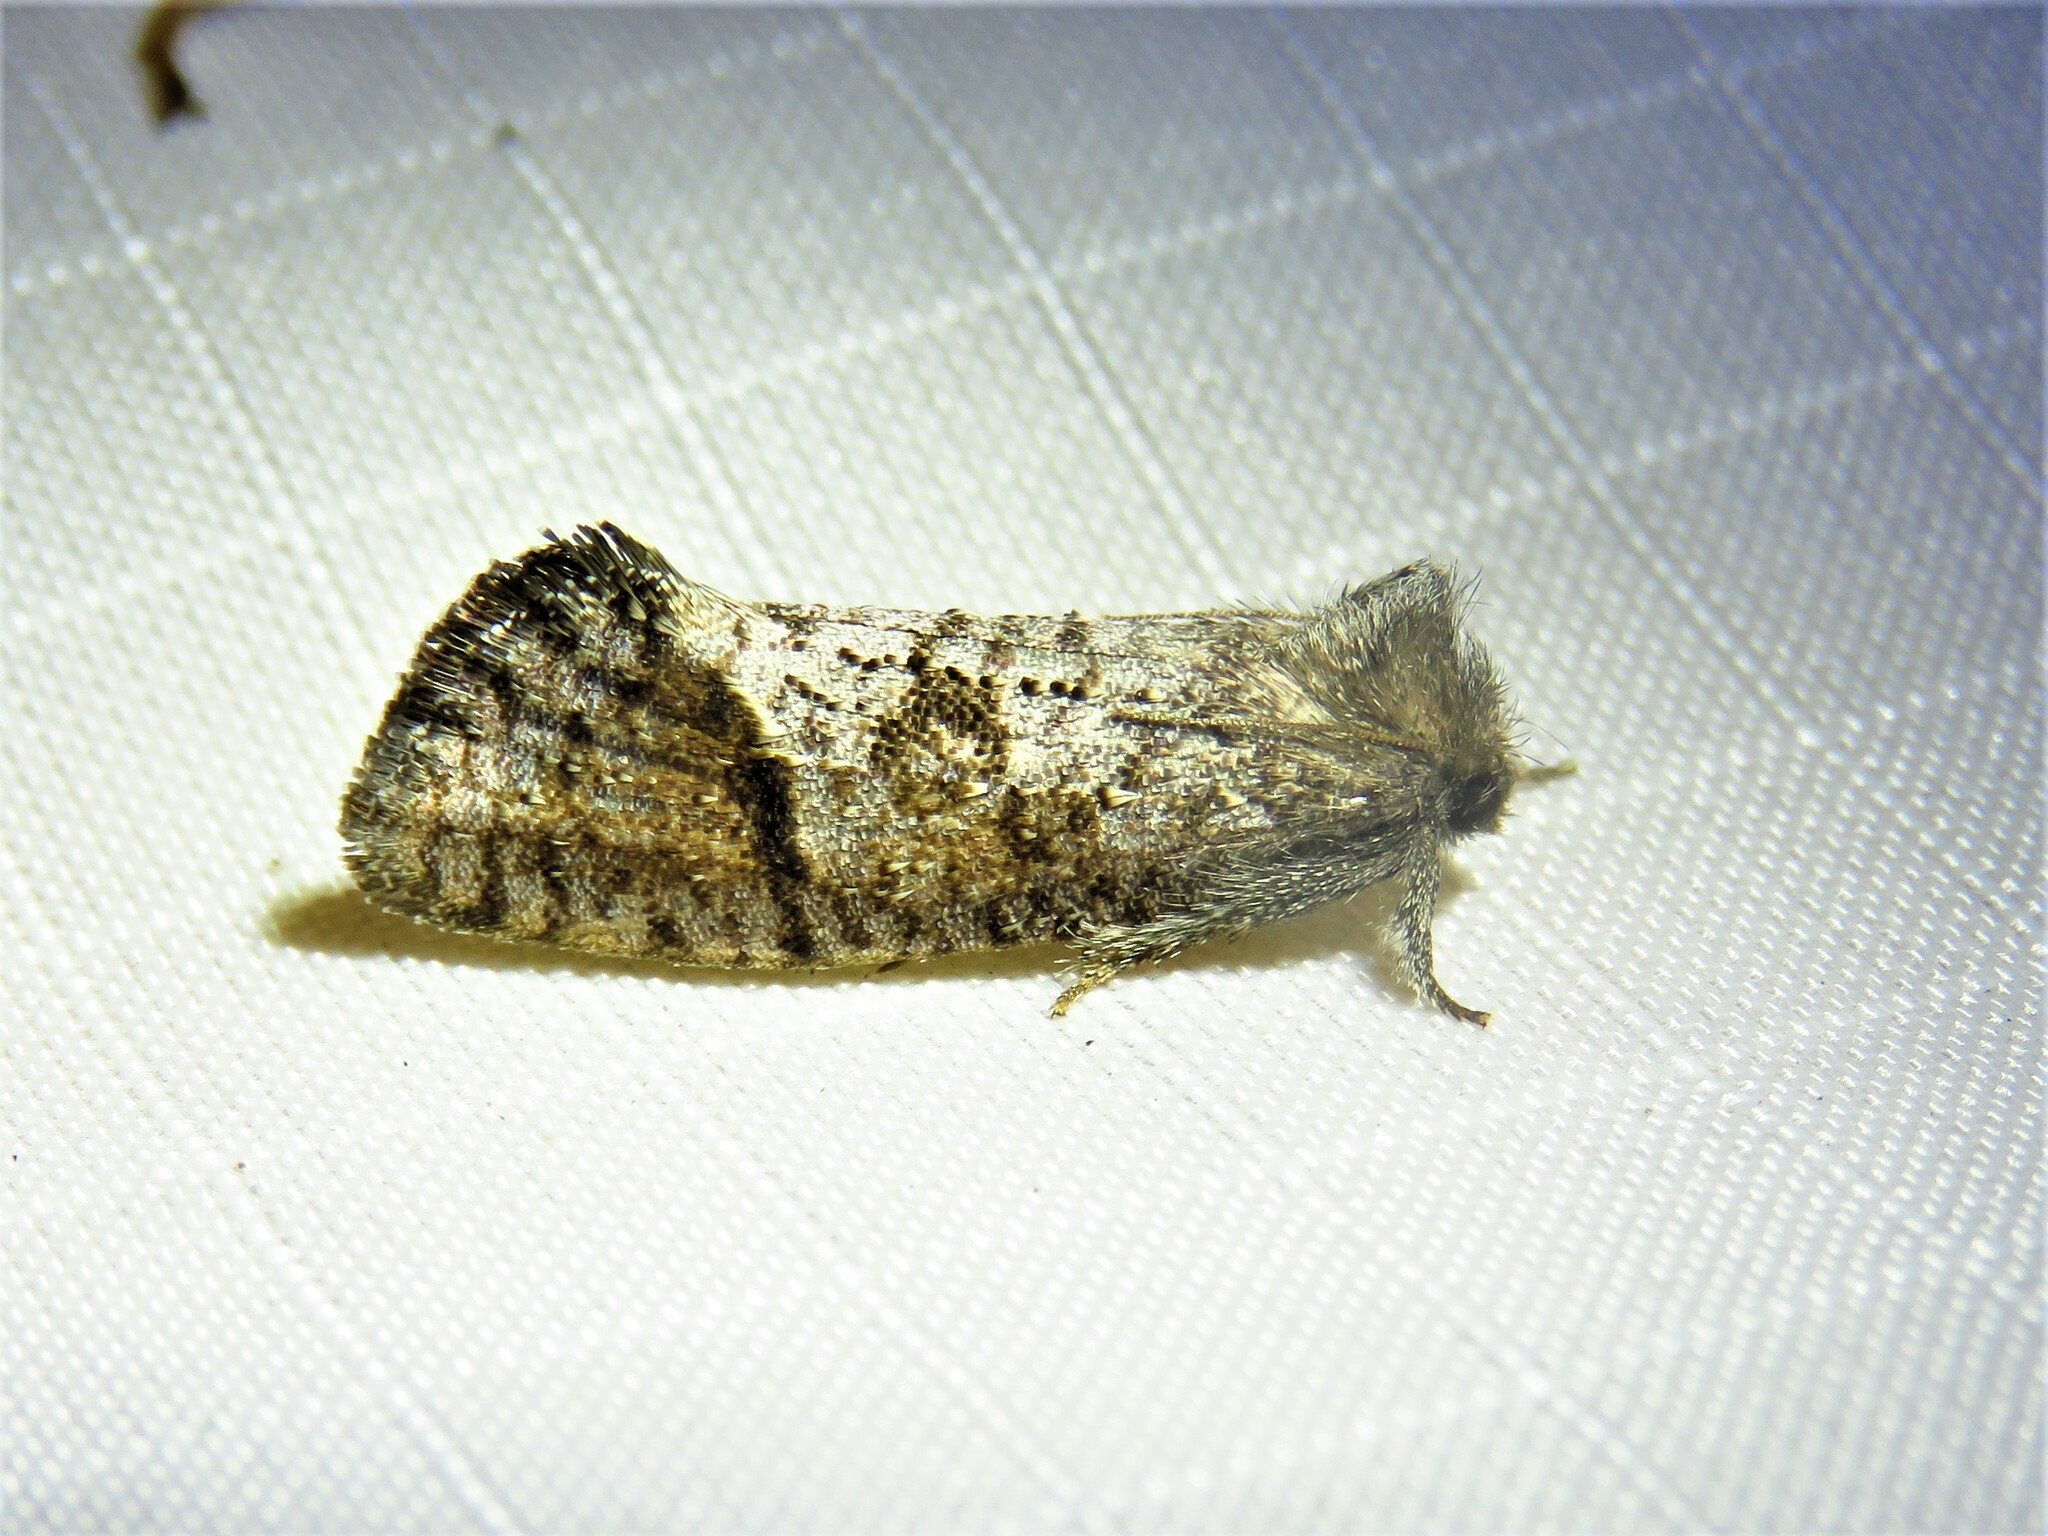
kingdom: Animalia
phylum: Arthropoda
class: Insecta
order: Lepidoptera
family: Tineidae
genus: Acrolophus
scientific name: Acrolophus texanella
